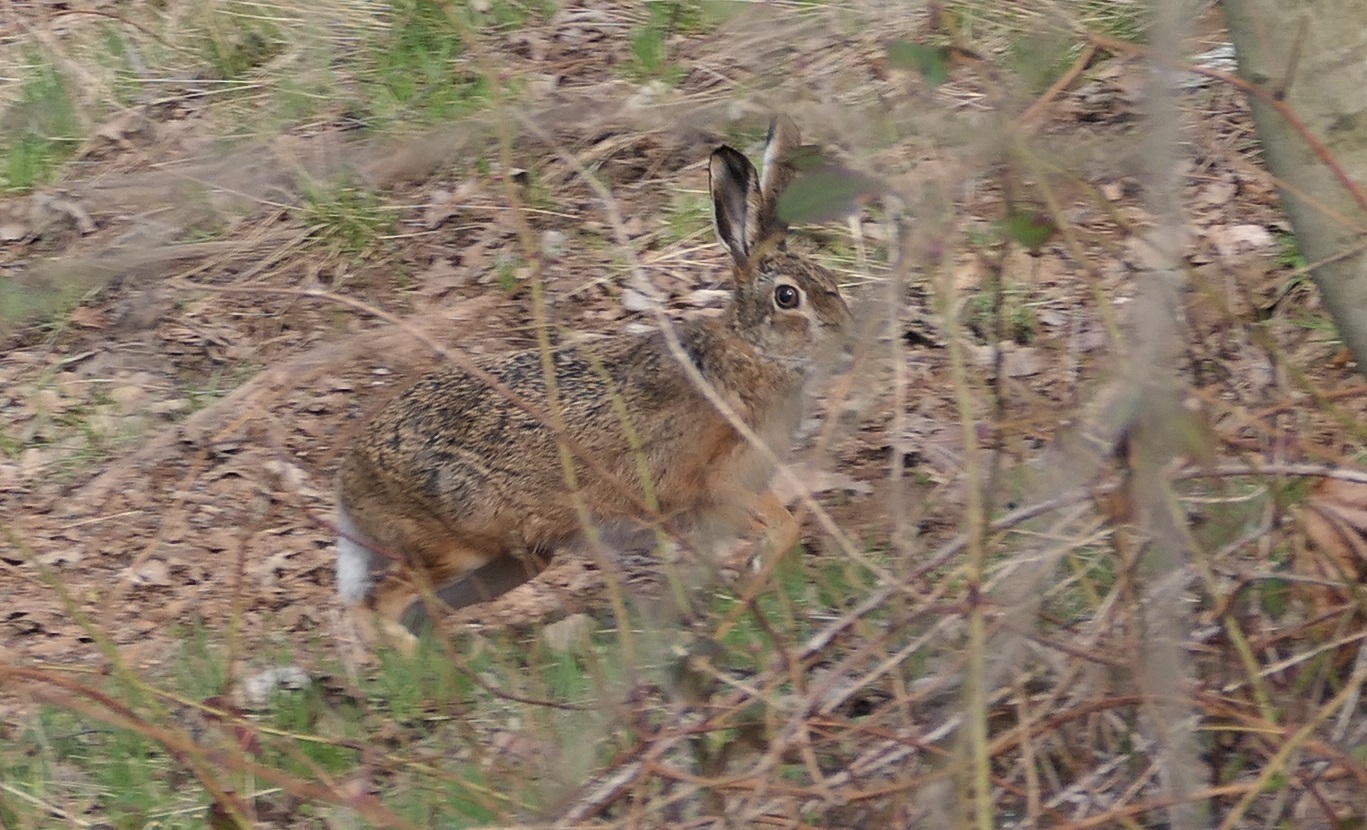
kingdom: Animalia
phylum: Chordata
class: Mammalia
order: Lagomorpha
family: Leporidae
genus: Lepus
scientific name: Lepus europaeus
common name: European hare
